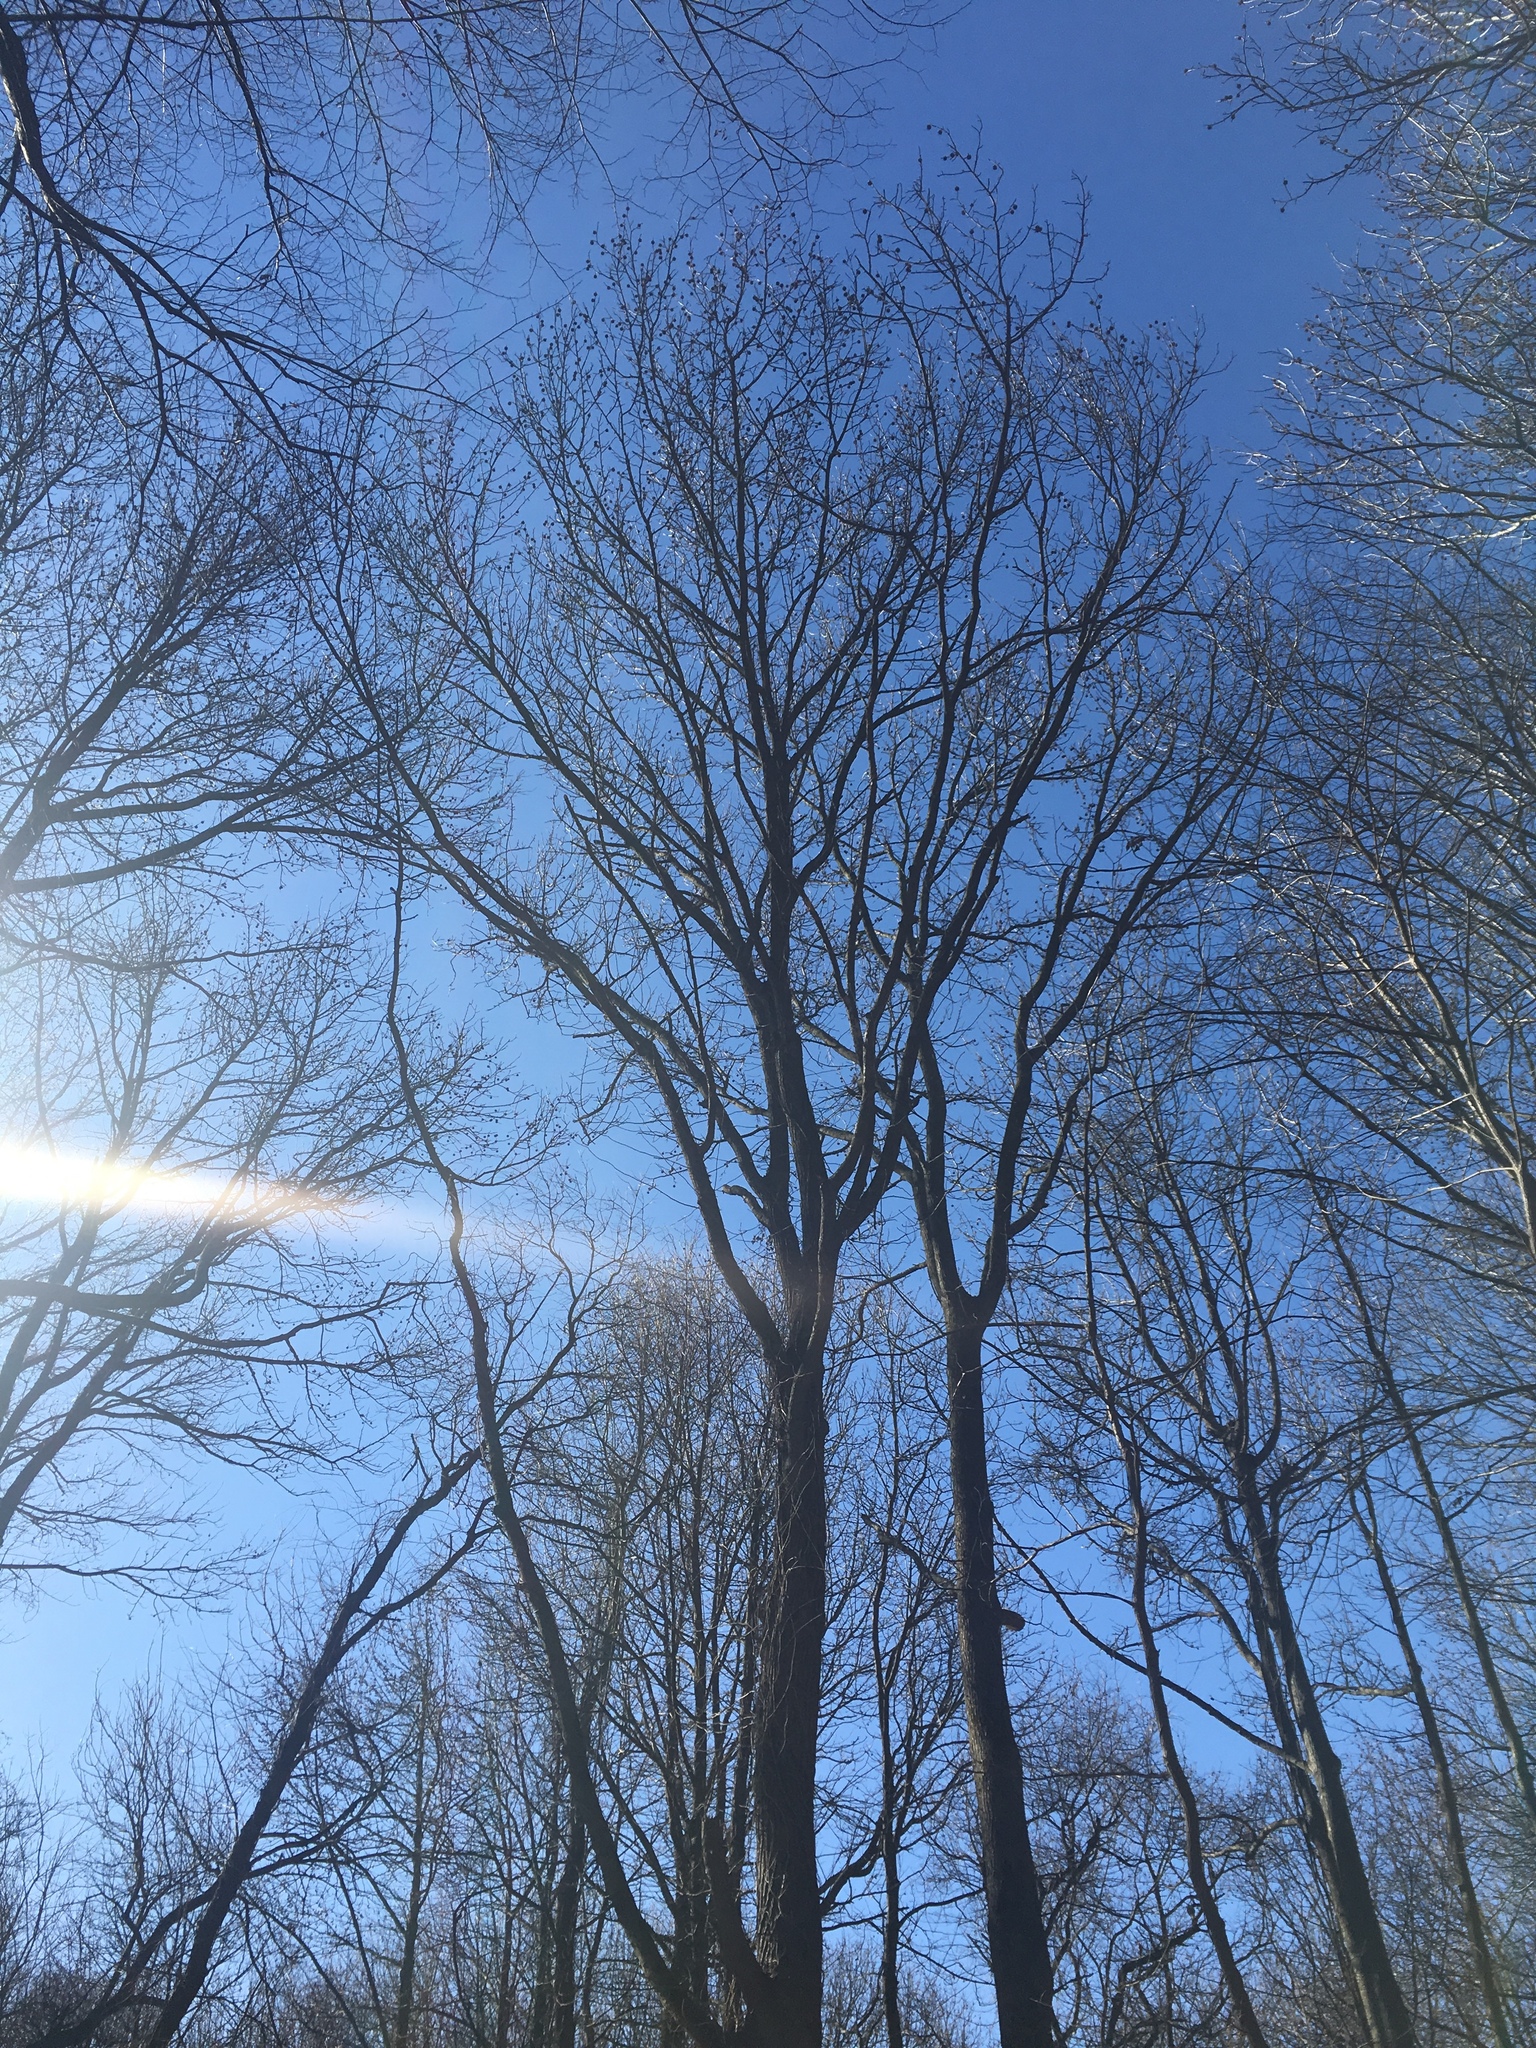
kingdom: Plantae
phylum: Tracheophyta
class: Magnoliopsida
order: Saxifragales
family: Altingiaceae
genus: Liquidambar
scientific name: Liquidambar styraciflua
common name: Sweet gum
